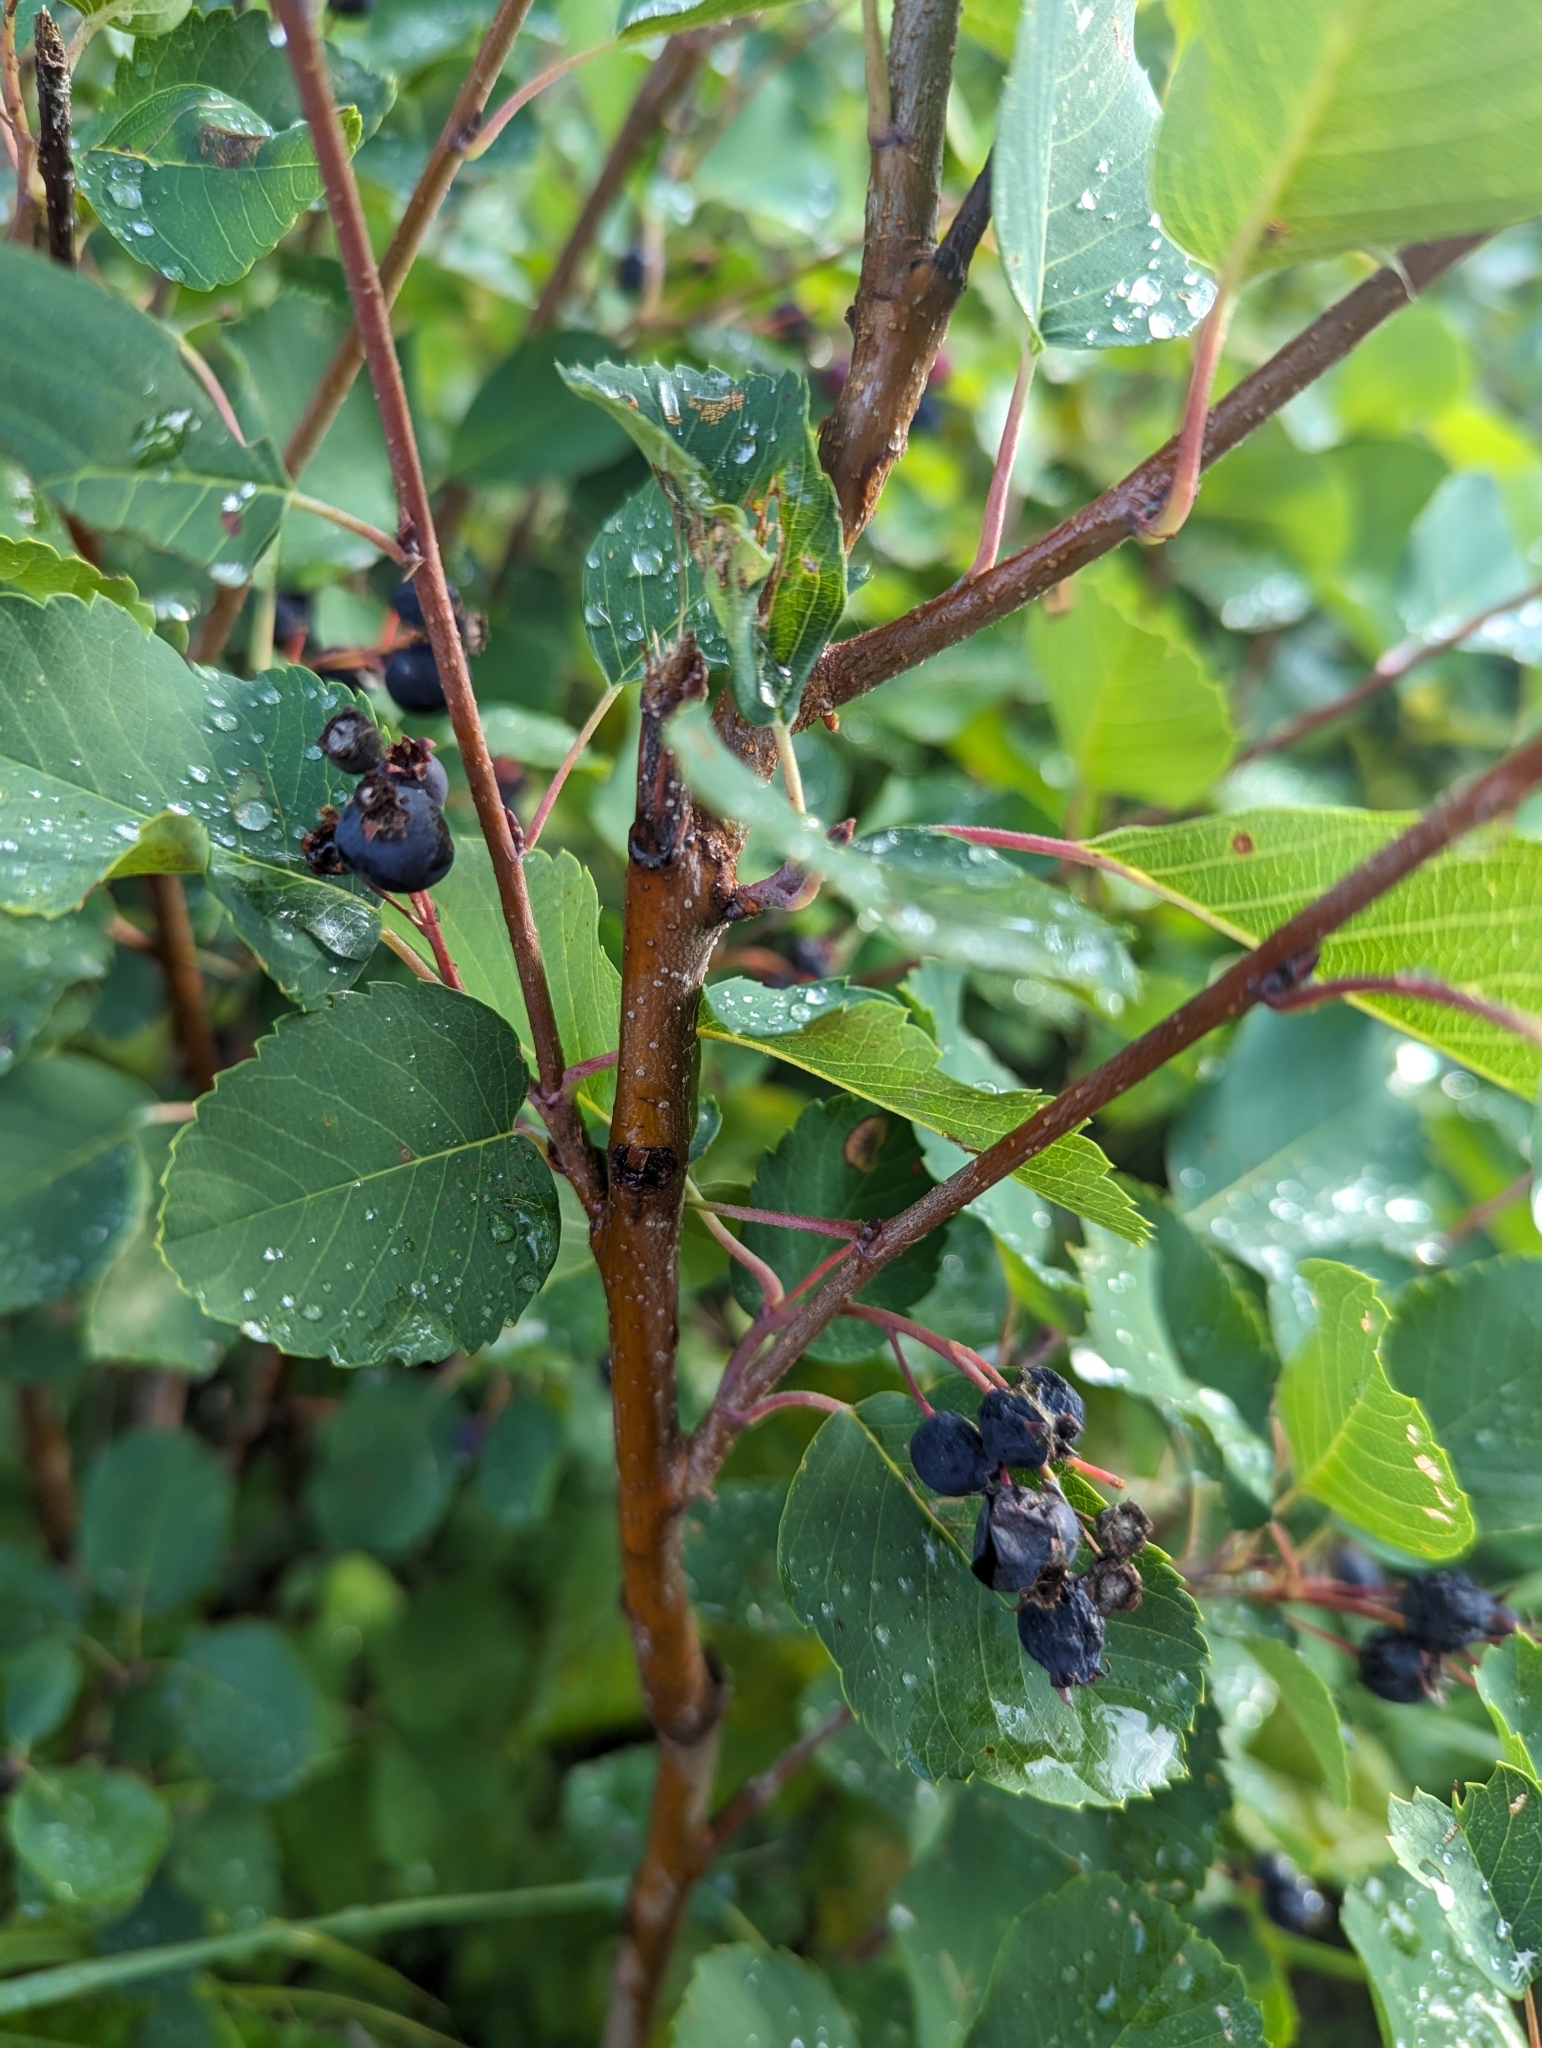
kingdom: Plantae
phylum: Tracheophyta
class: Magnoliopsida
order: Rosales
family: Rosaceae
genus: Amelanchier
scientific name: Amelanchier alnifolia
